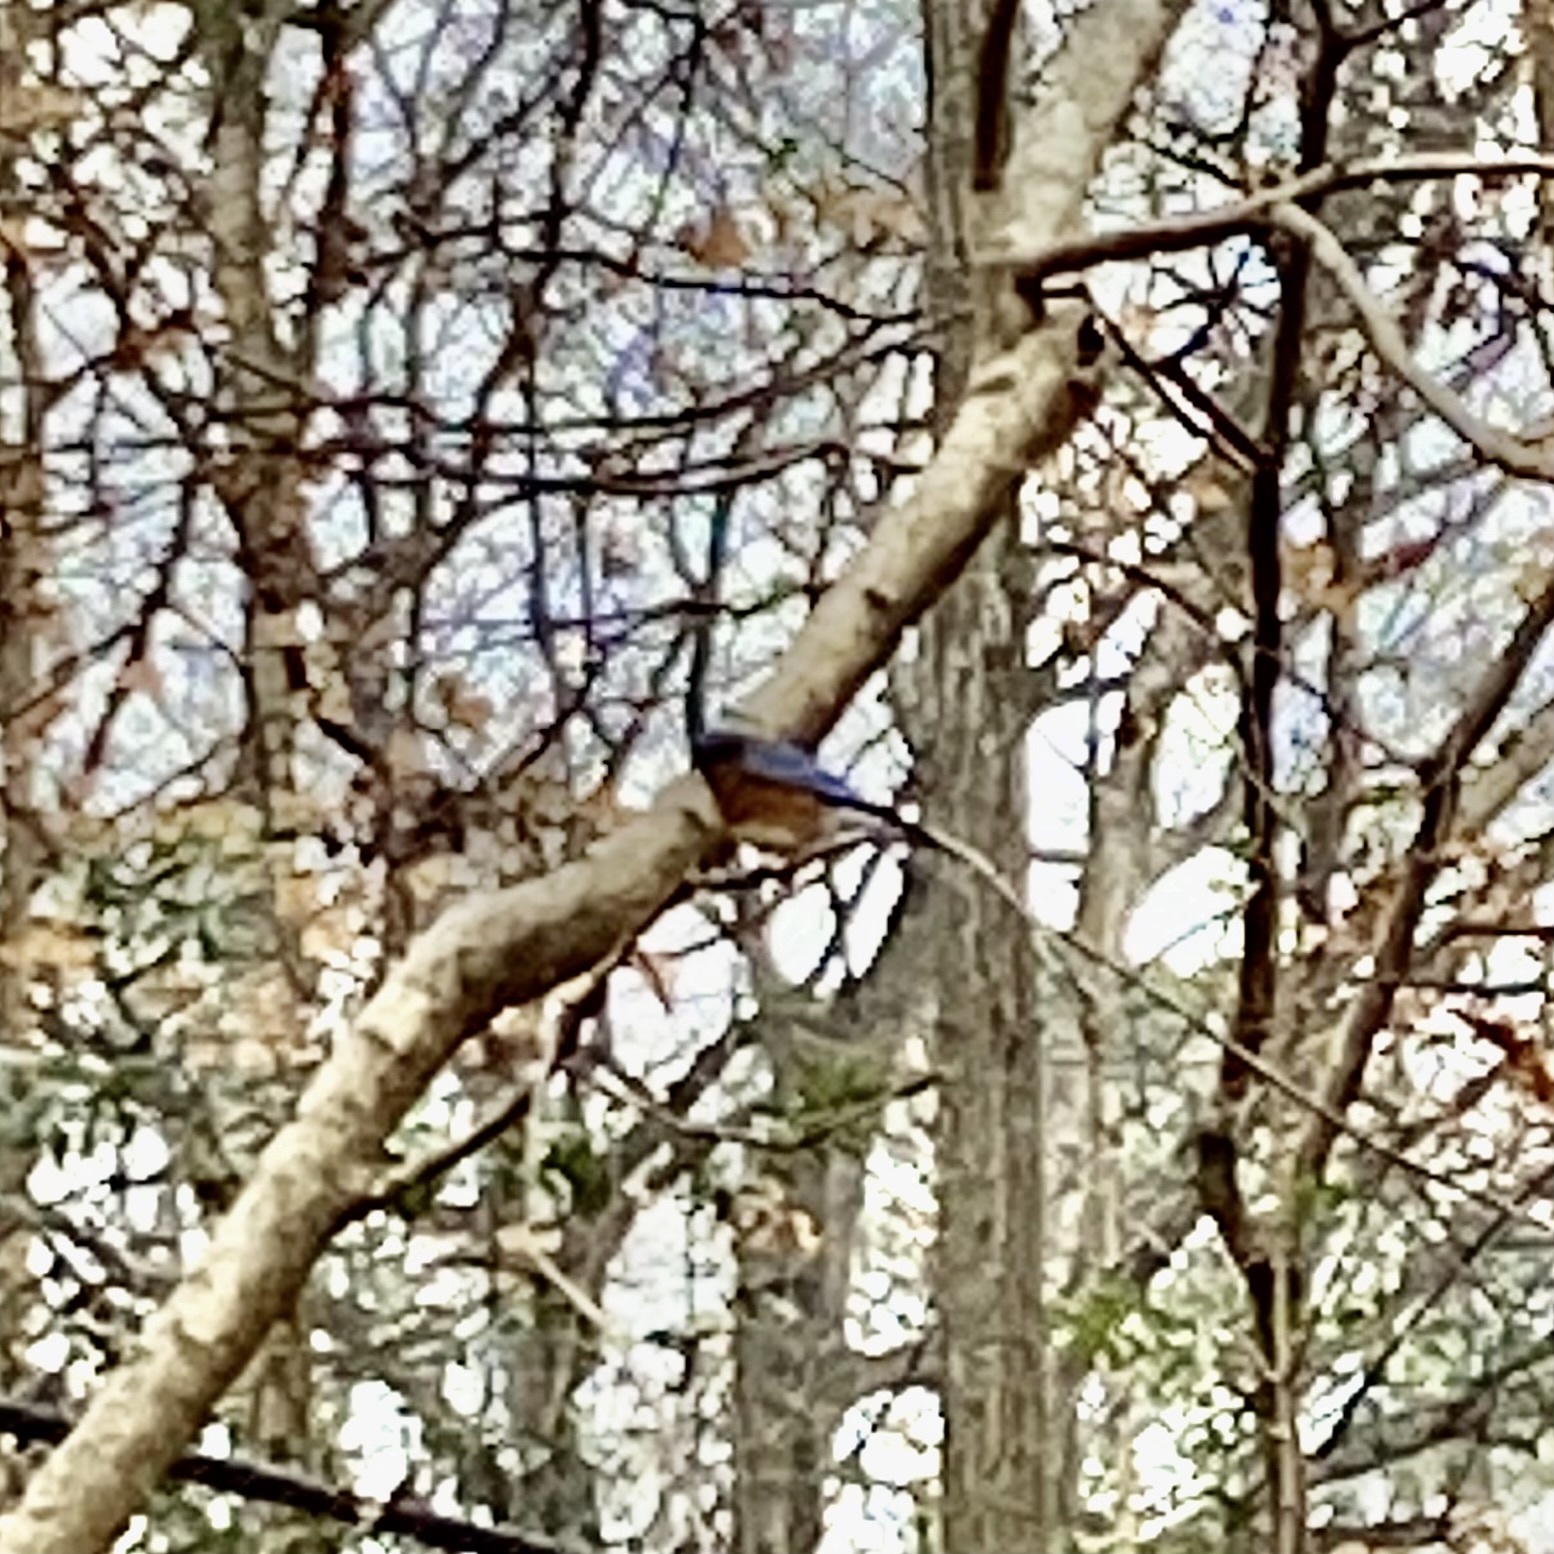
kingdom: Animalia
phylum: Chordata
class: Aves
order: Passeriformes
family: Turdidae
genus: Sialia
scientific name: Sialia sialis
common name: Eastern bluebird
